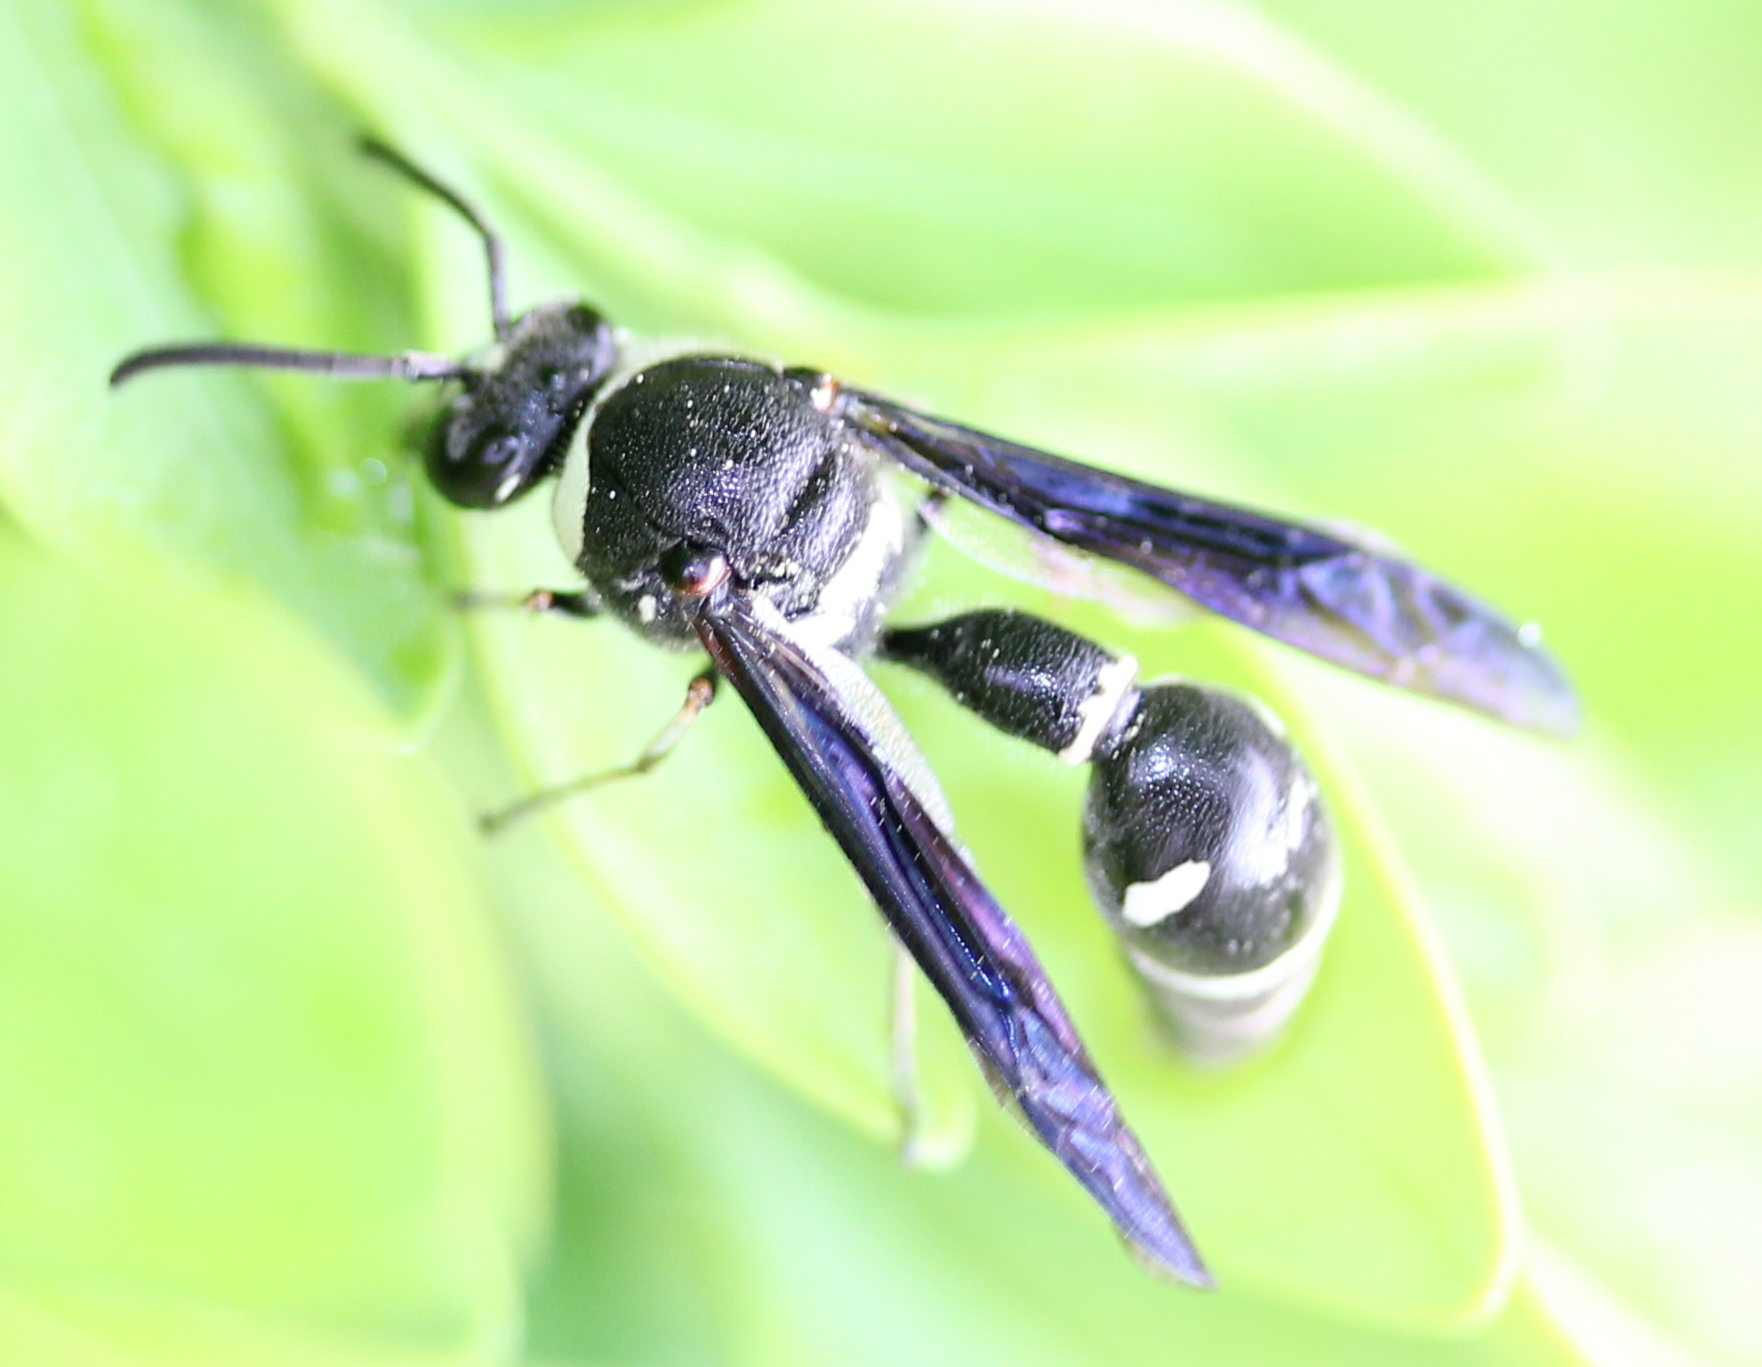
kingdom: Animalia
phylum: Arthropoda
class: Insecta
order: Hymenoptera
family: Vespidae
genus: Eumenes
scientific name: Eumenes fraternus
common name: Fraternal potter wasp
